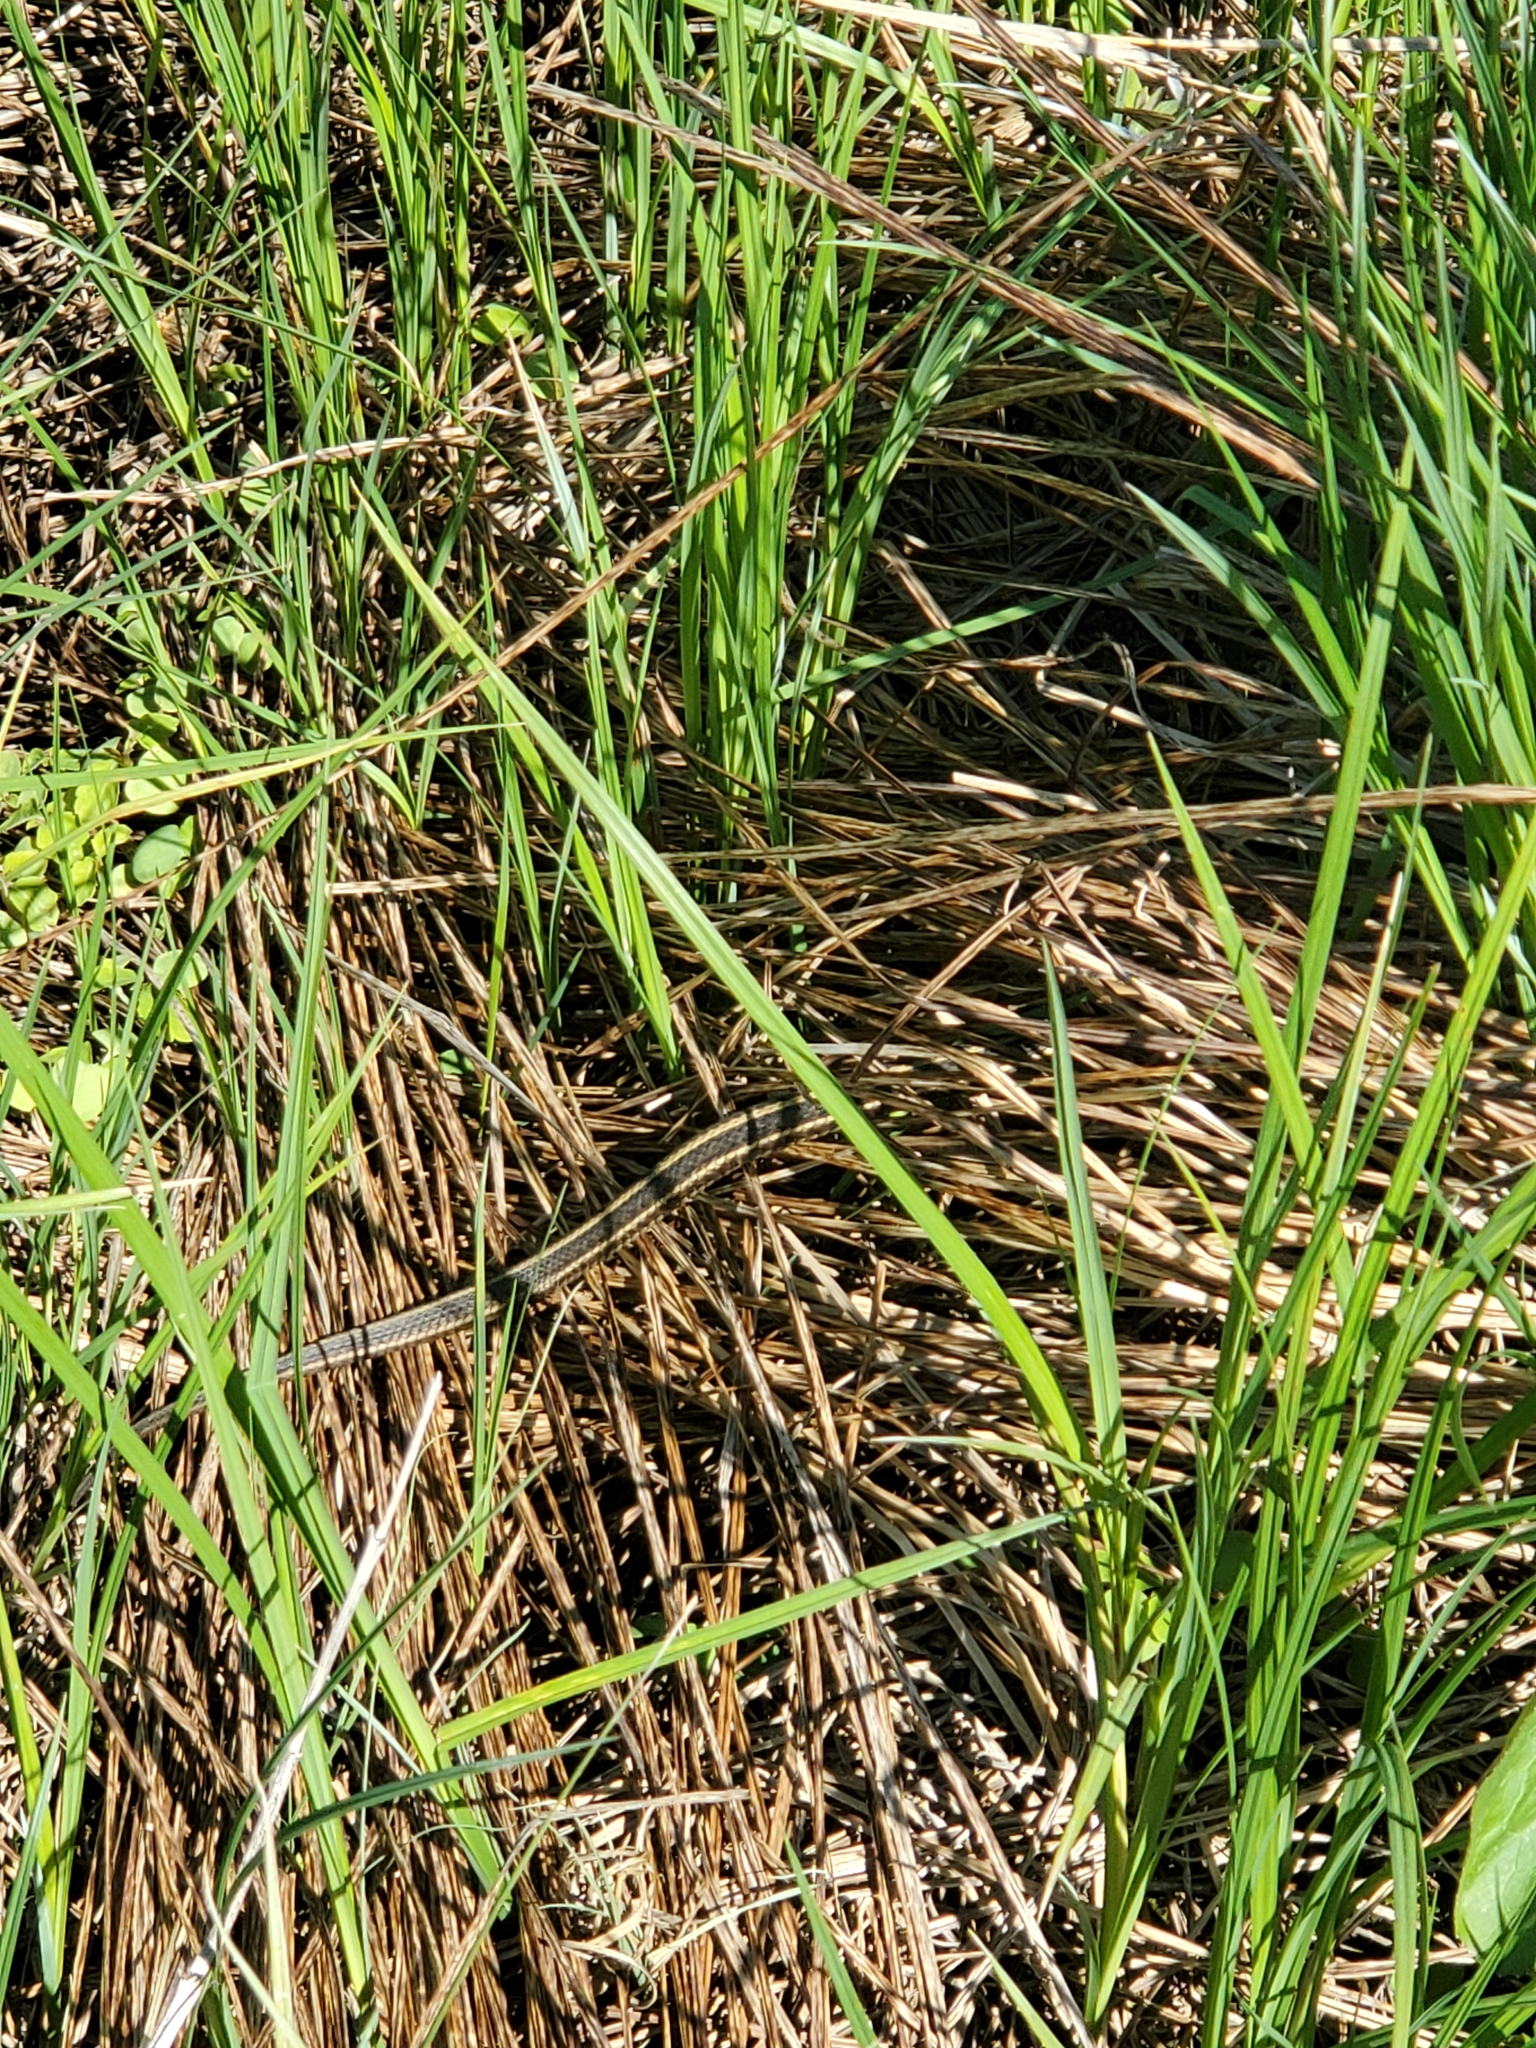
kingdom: Animalia
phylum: Chordata
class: Squamata
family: Colubridae
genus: Thamnophis
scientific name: Thamnophis sirtalis
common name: Common garter snake
